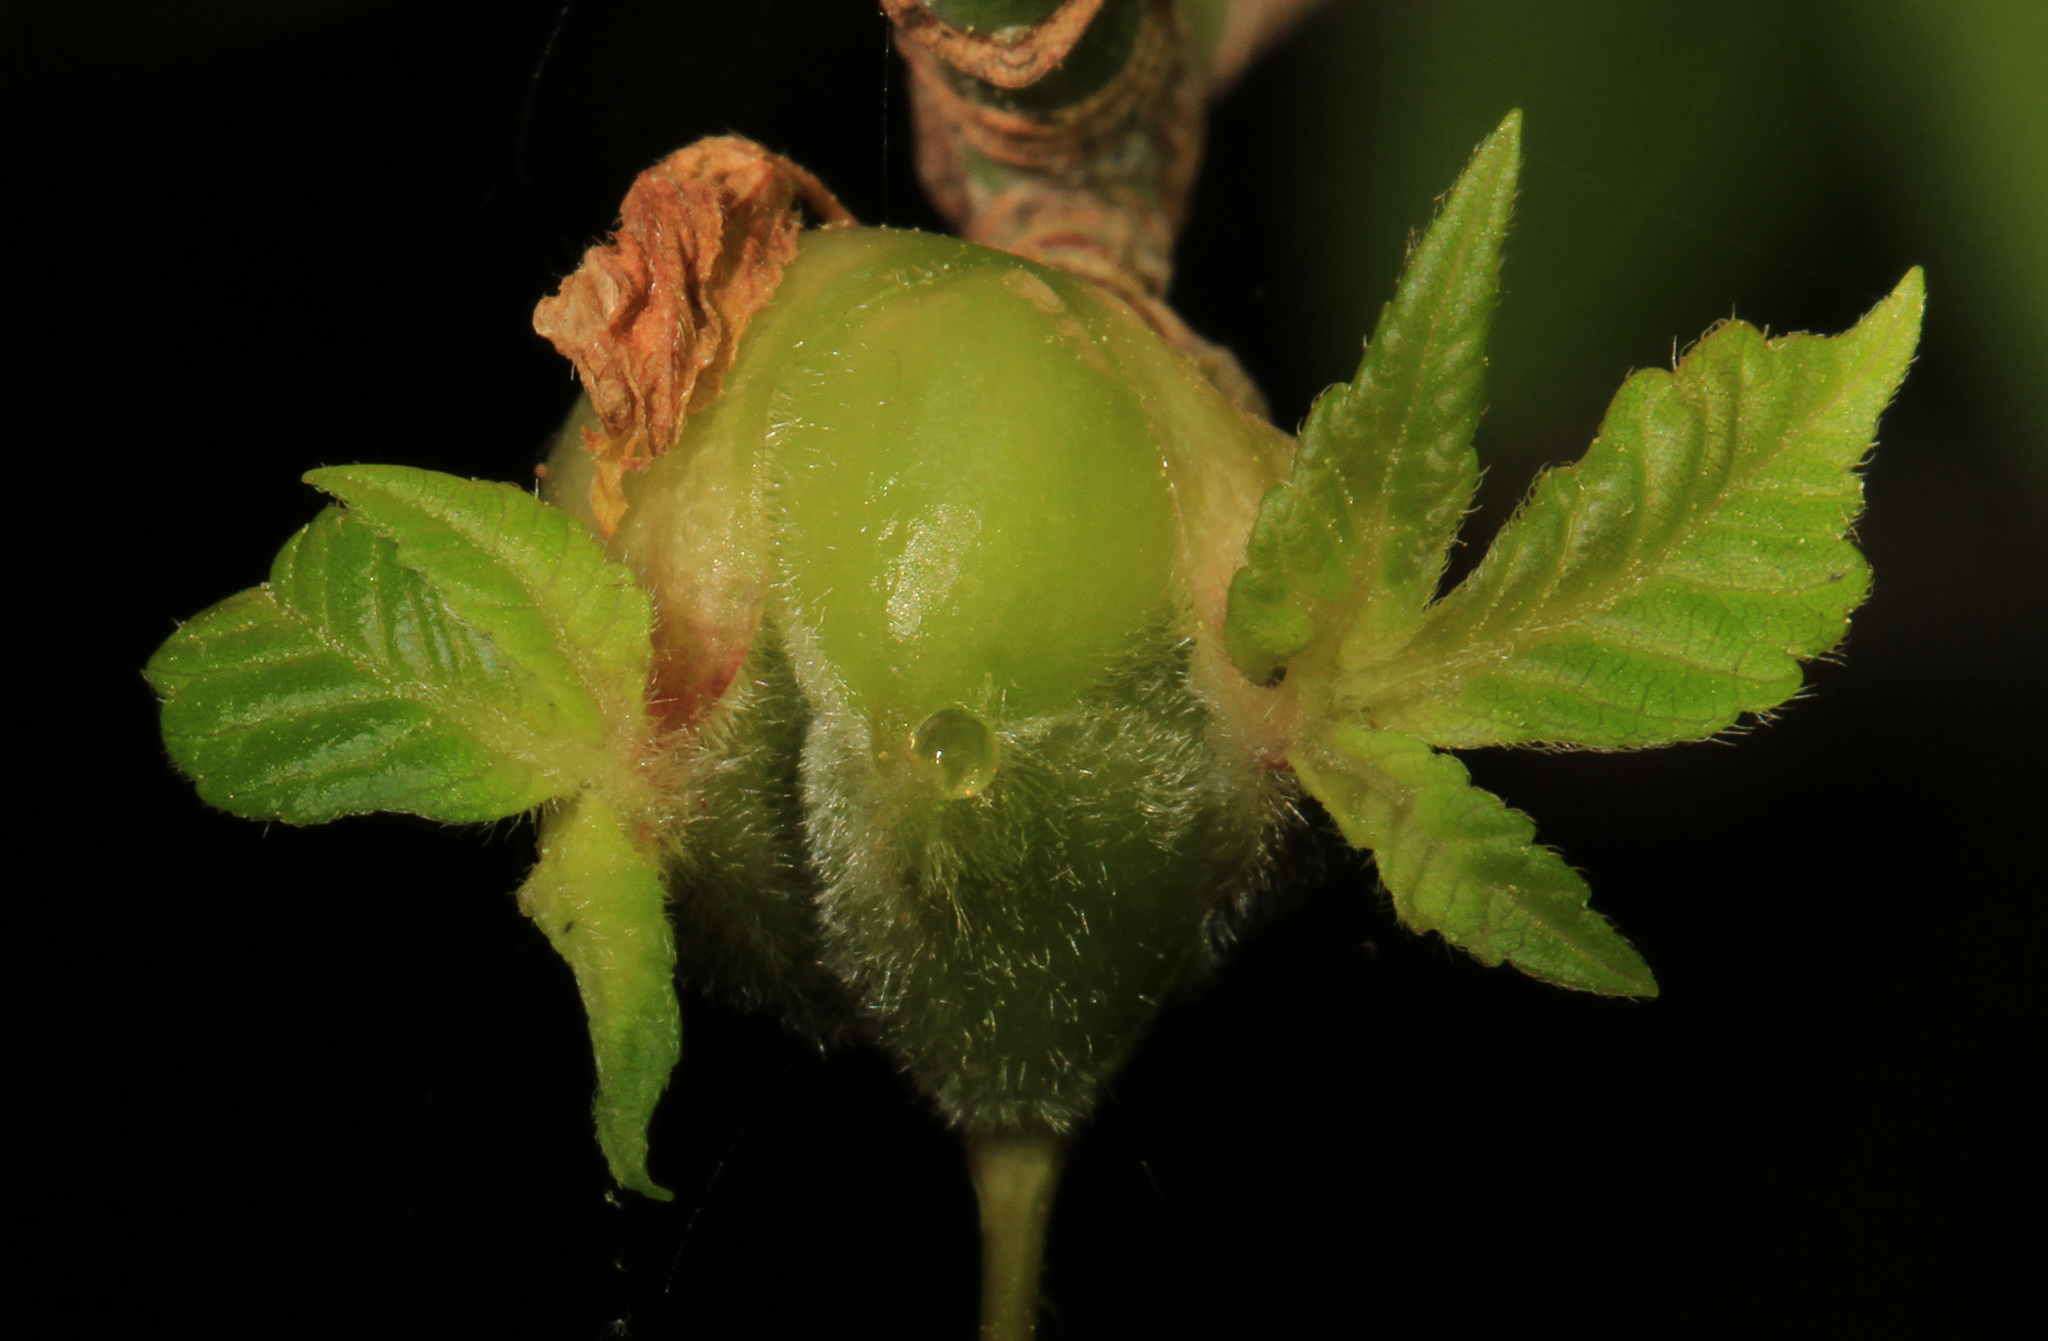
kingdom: Animalia
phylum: Arthropoda
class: Insecta
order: Diptera
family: Cecidomyiidae
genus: Contarinia
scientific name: Contarinia negundinis
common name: Boxelder budgall midge
